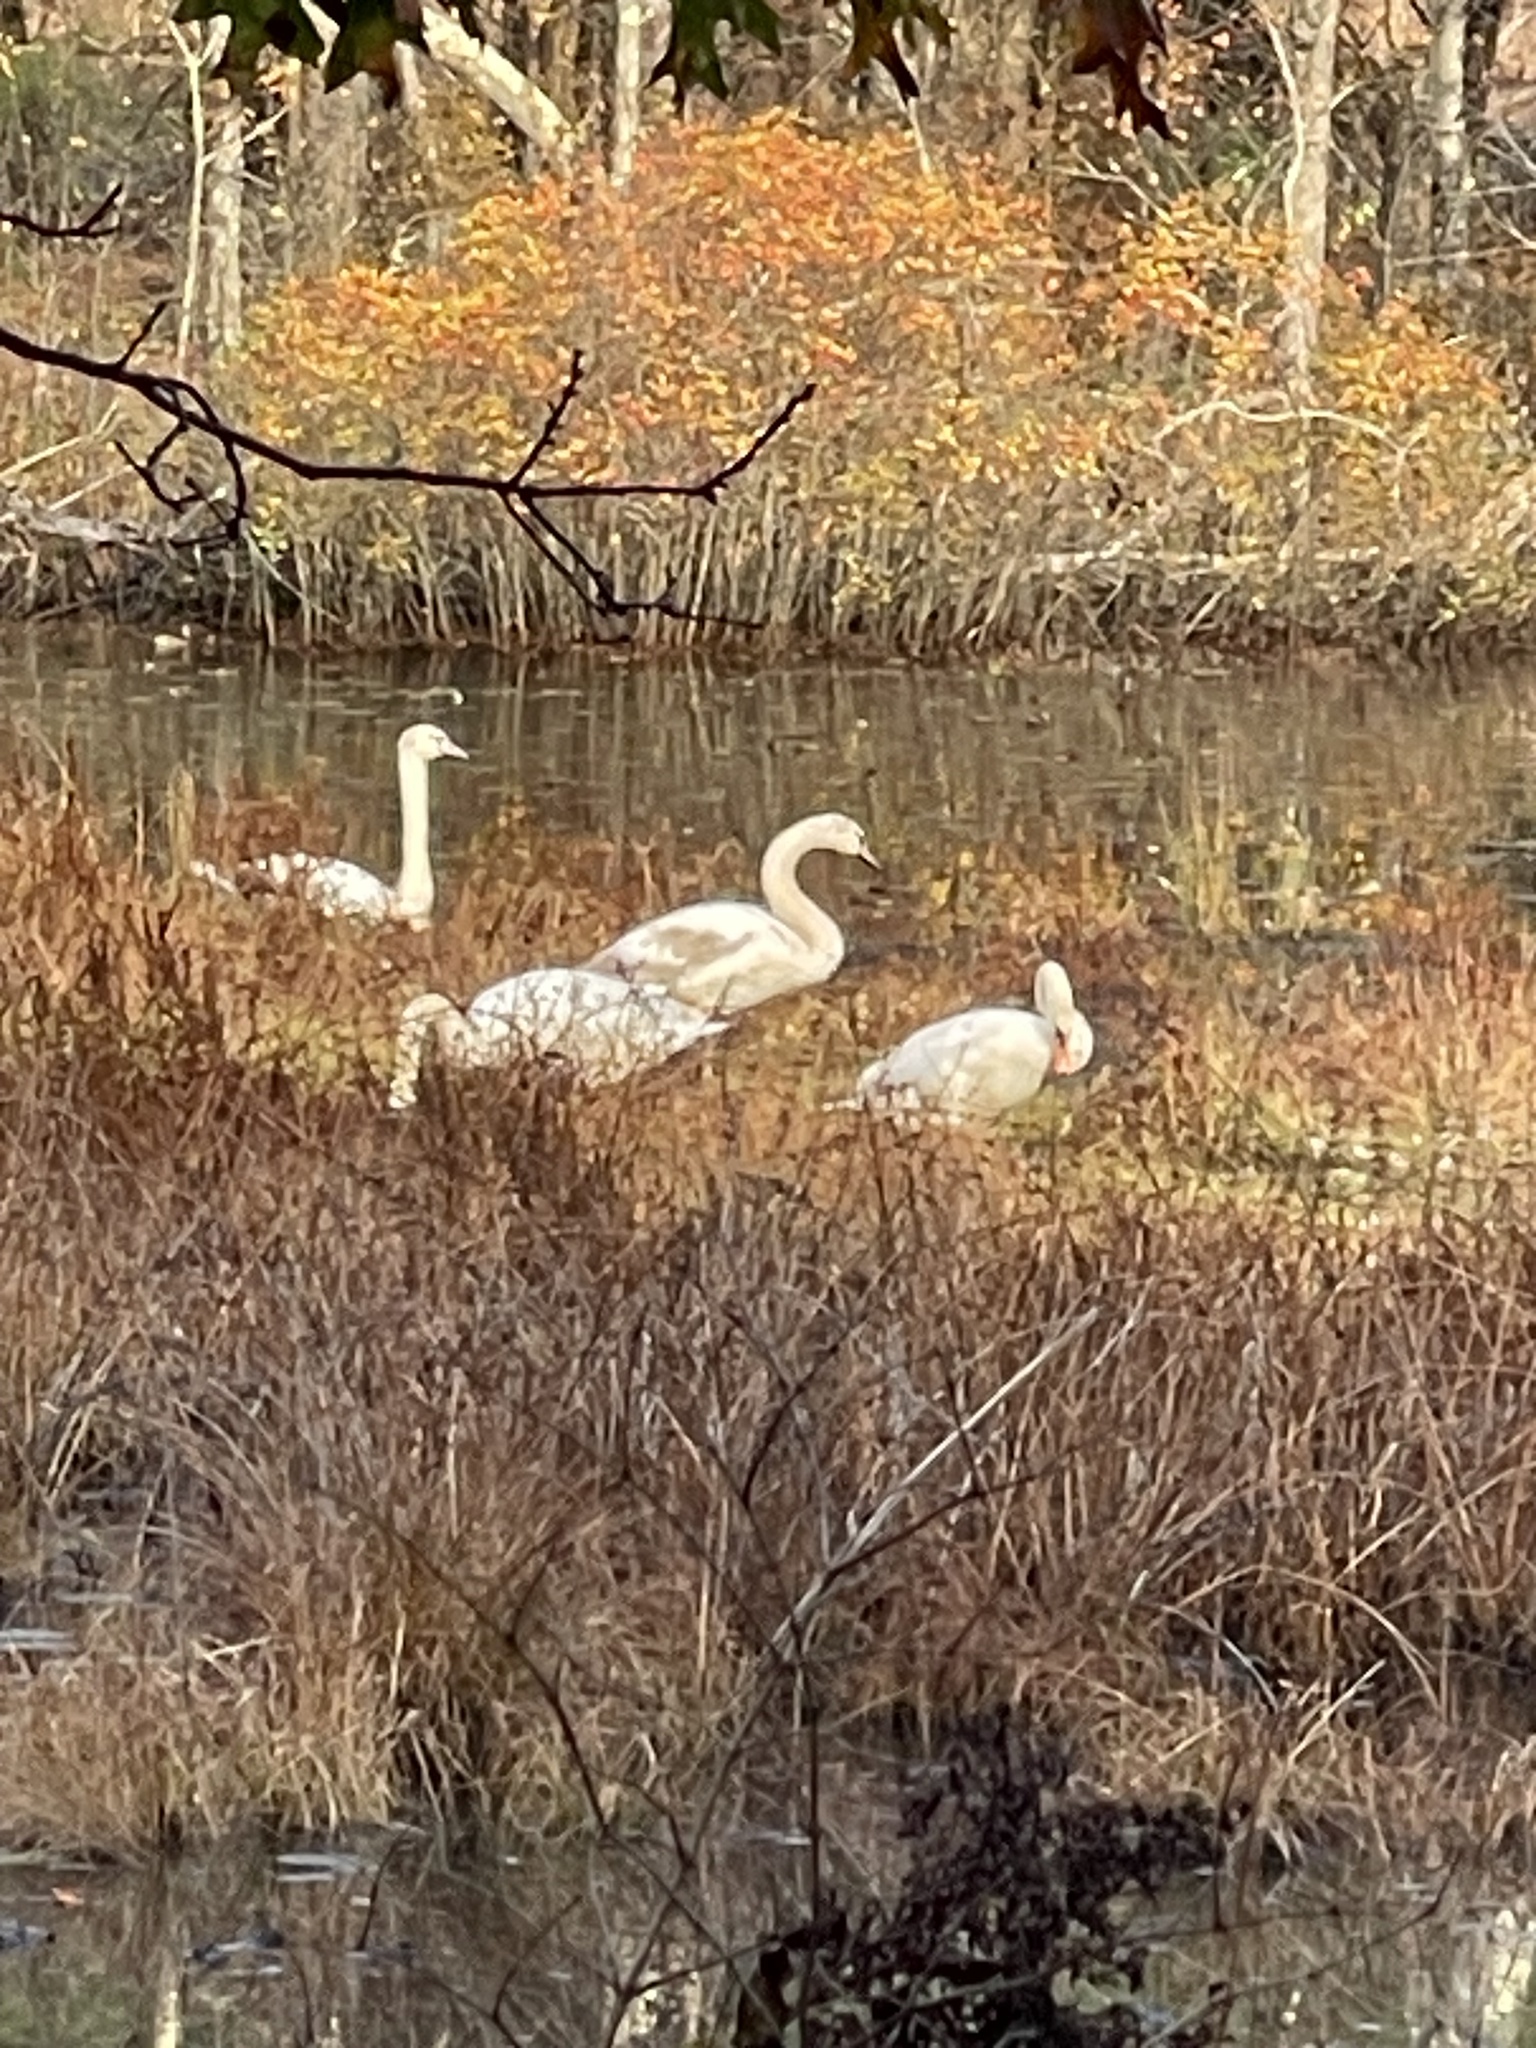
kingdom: Animalia
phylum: Chordata
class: Aves
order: Anseriformes
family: Anatidae
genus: Cygnus
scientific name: Cygnus olor
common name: Mute swan
